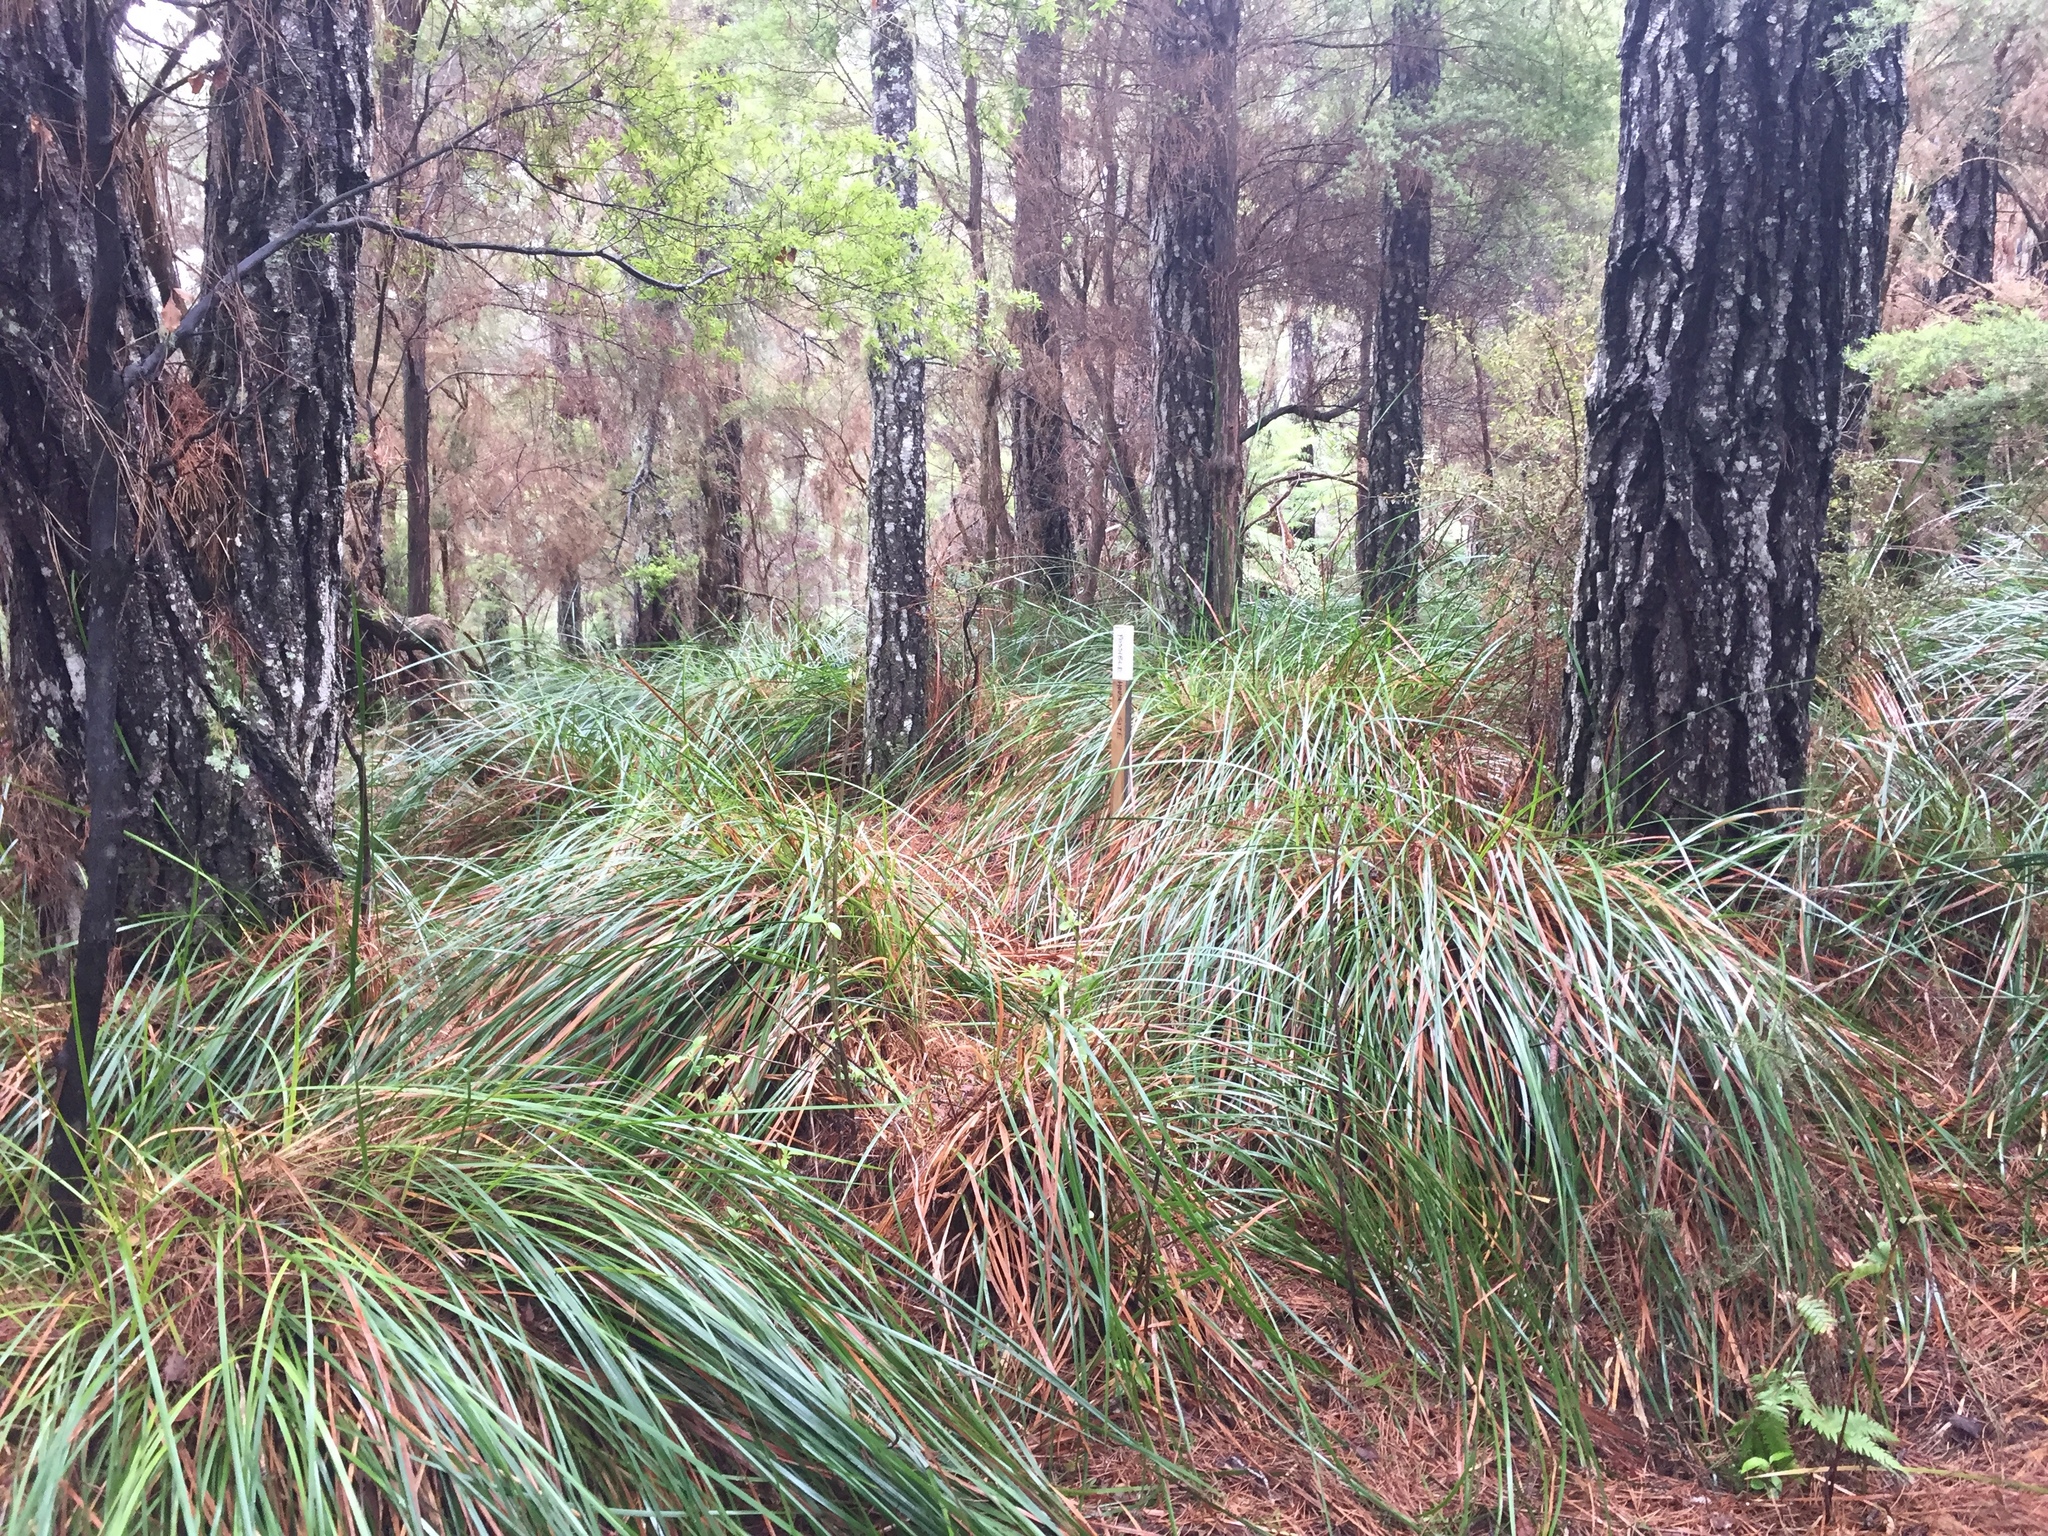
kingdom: Plantae
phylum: Tracheophyta
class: Liliopsida
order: Poales
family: Cyperaceae
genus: Lepidosperma
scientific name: Lepidosperma laterale
